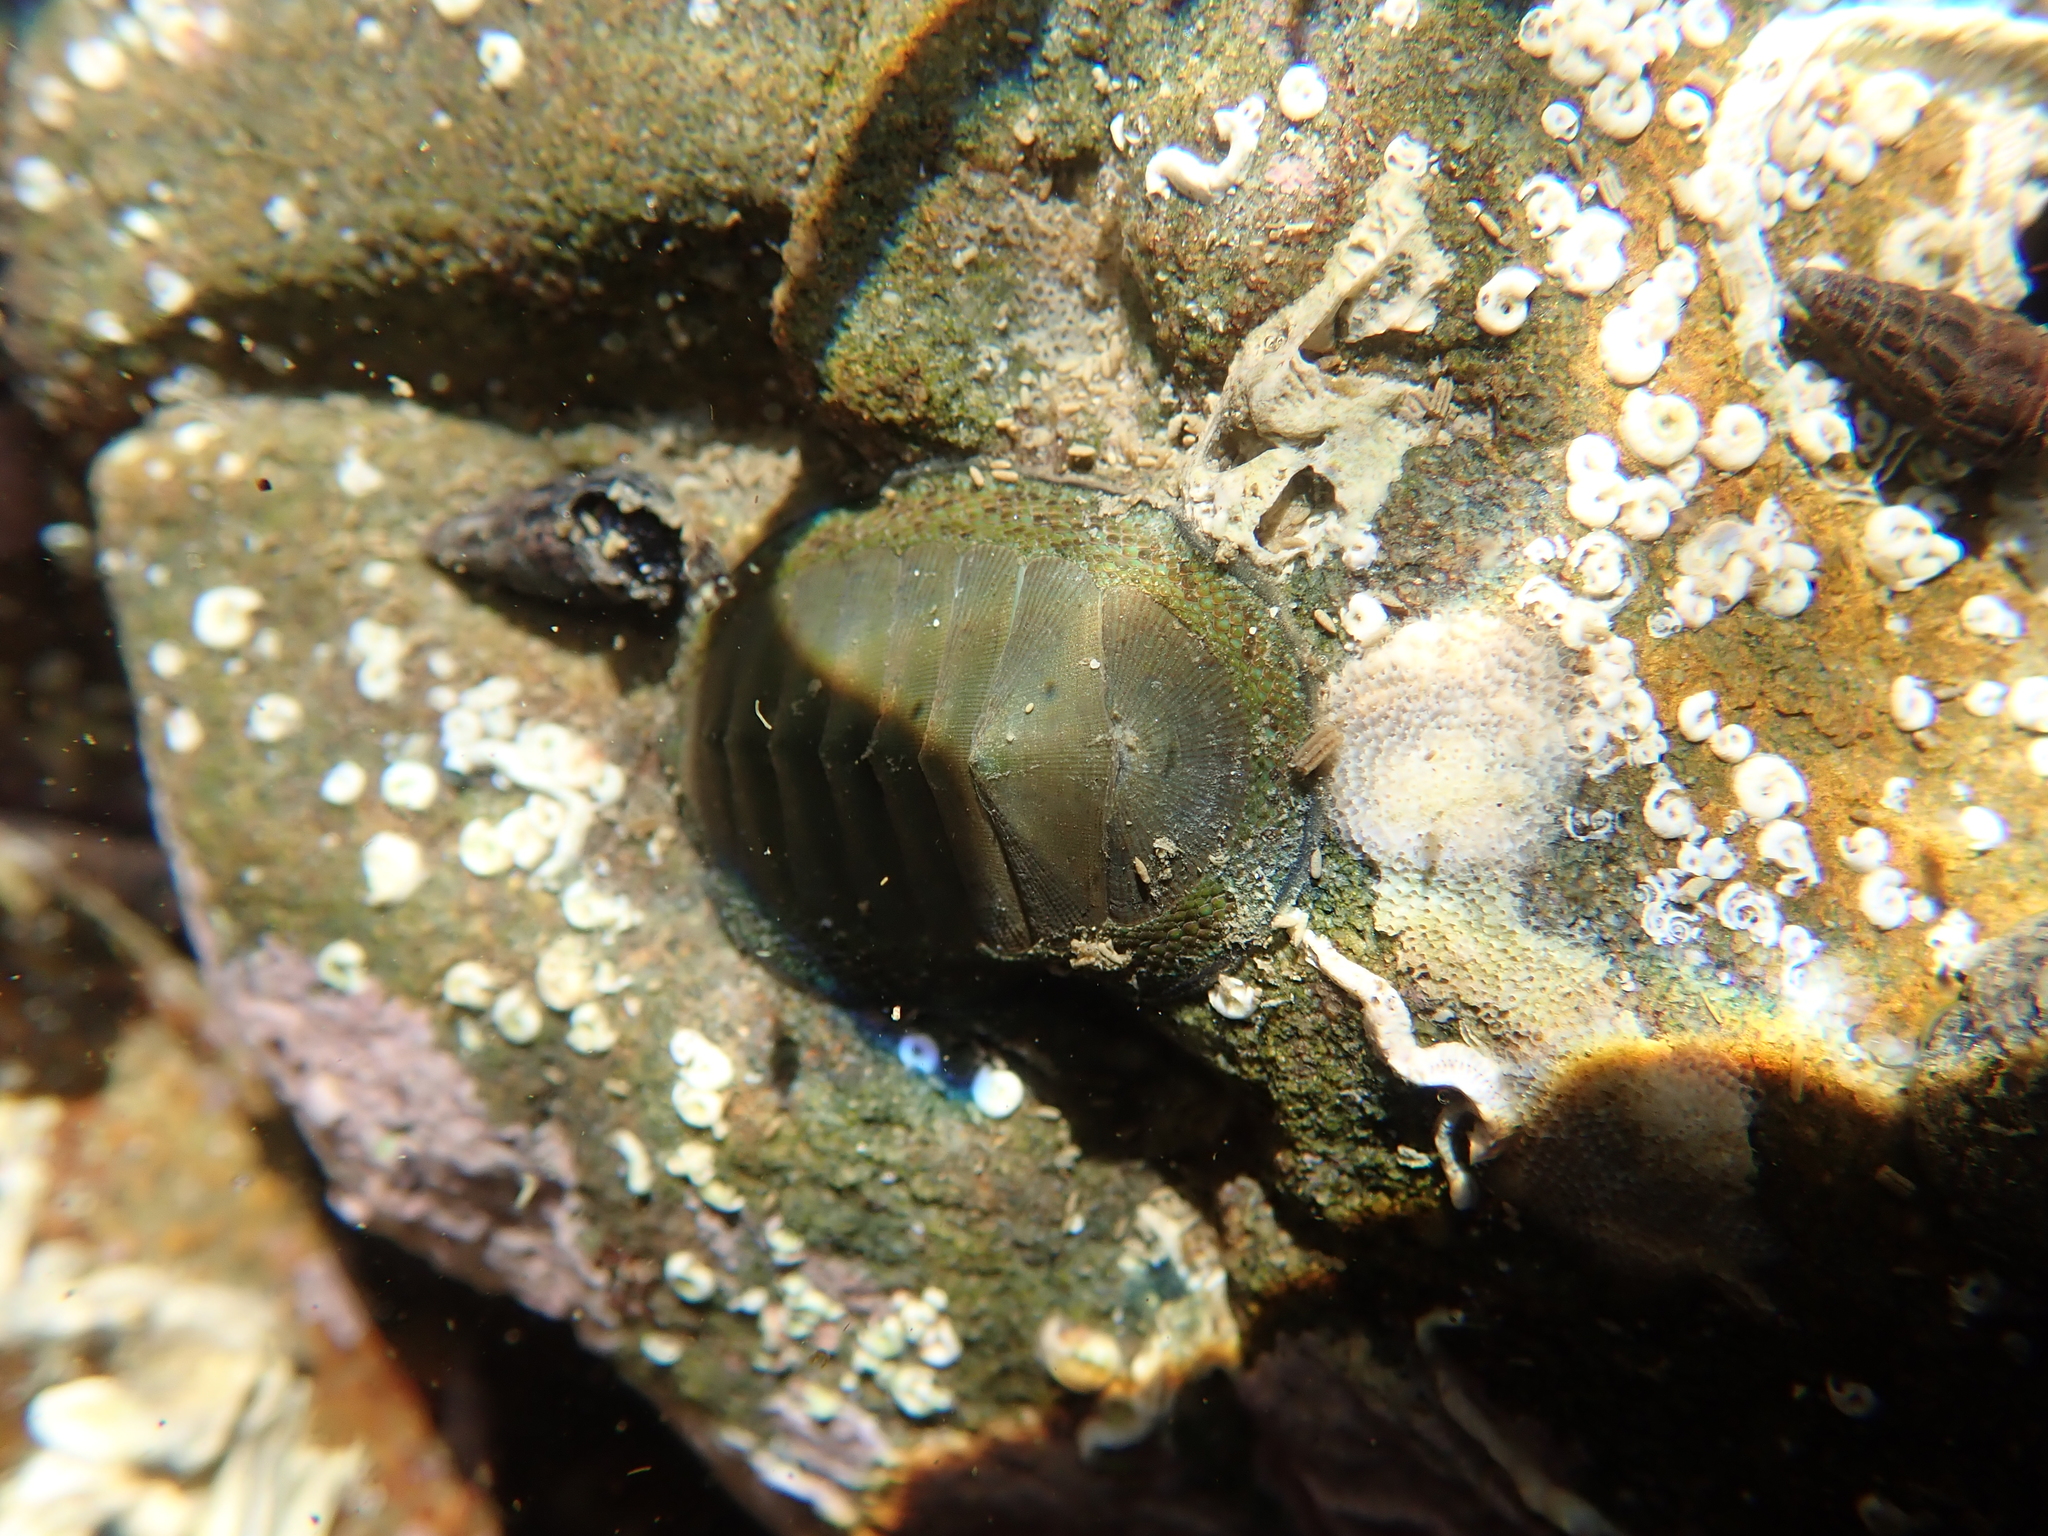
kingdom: Animalia
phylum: Mollusca
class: Polyplacophora
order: Chitonida
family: Chitonidae
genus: Chiton
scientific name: Chiton glaucus
